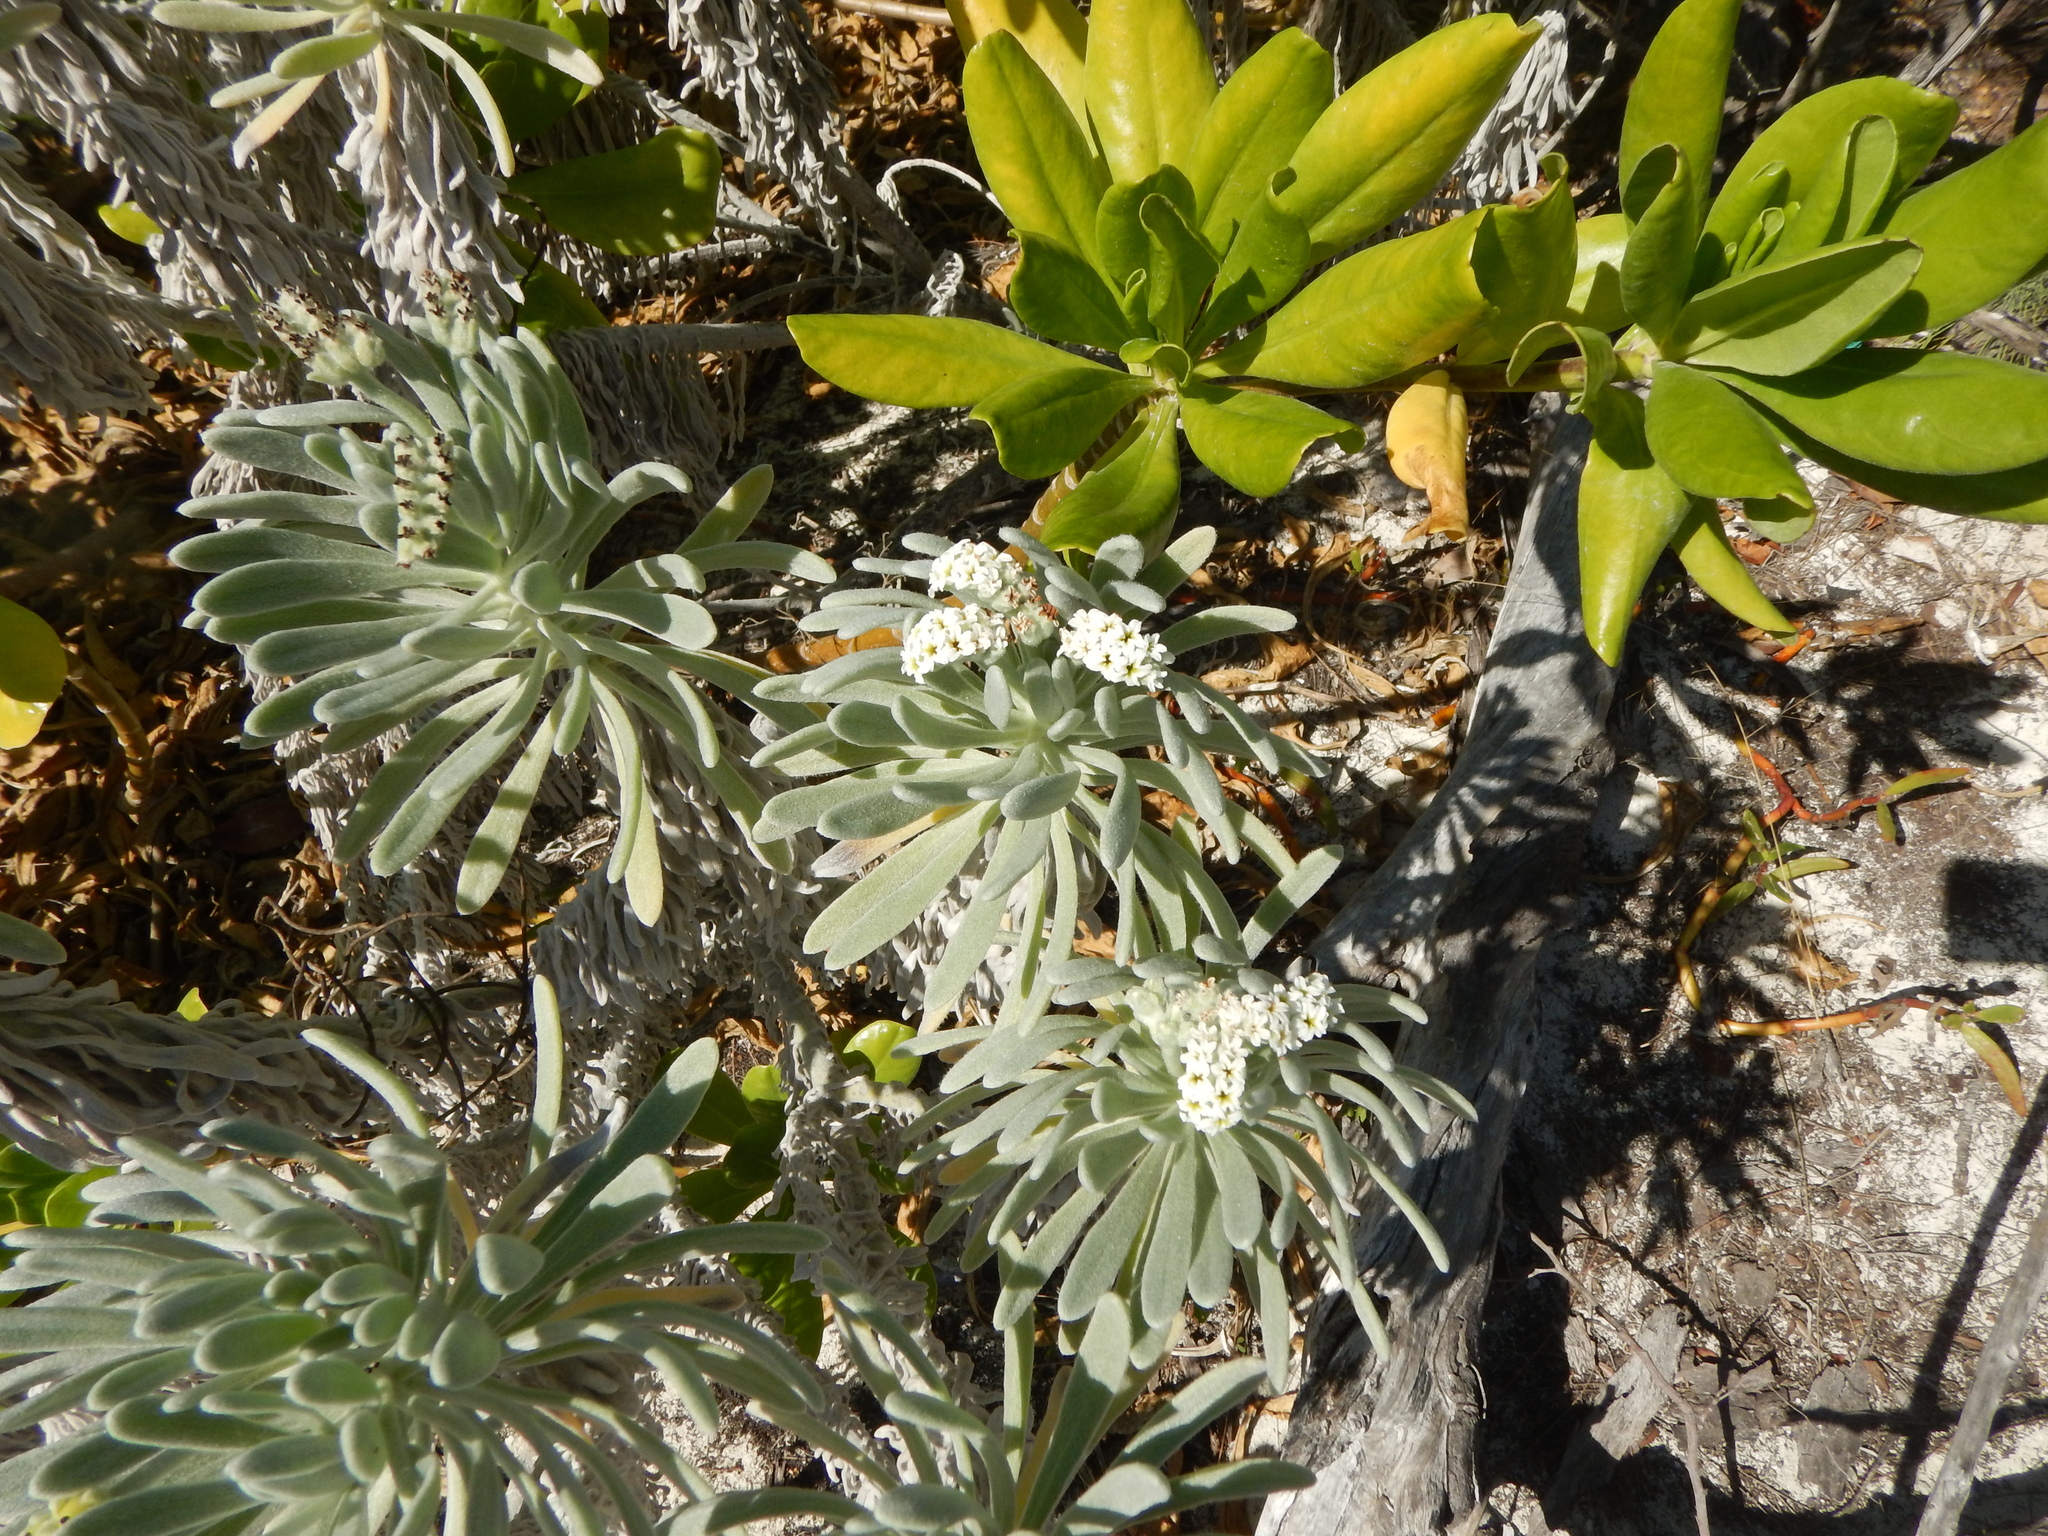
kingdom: Plantae
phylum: Tracheophyta
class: Magnoliopsida
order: Boraginales
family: Heliotropiaceae
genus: Tournefortia
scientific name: Tournefortia gnaphalodes
